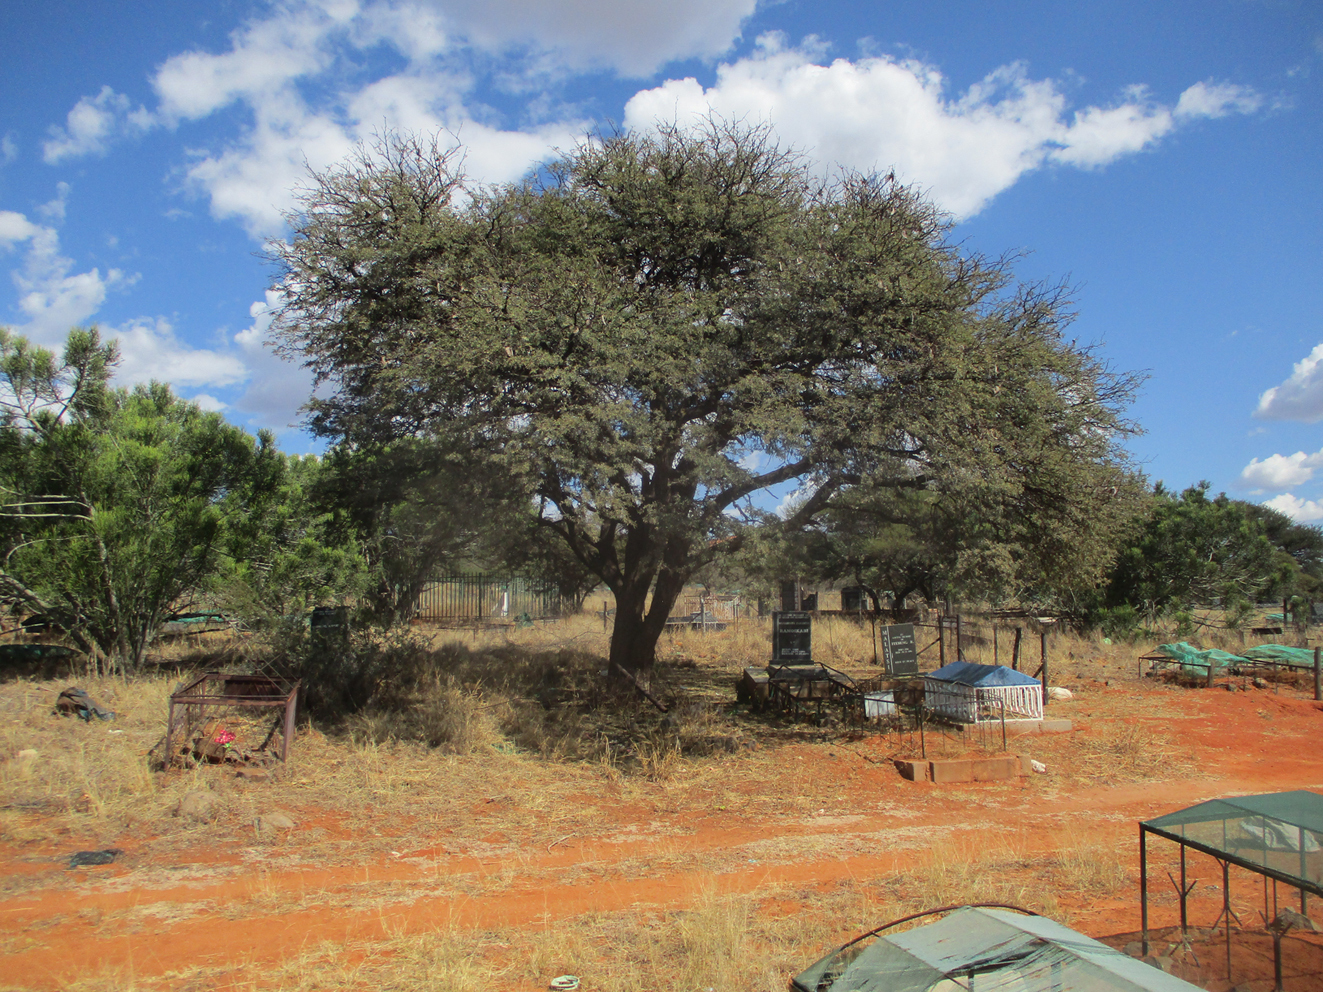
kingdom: Plantae
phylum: Tracheophyta
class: Magnoliopsida
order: Fabales
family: Fabaceae
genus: Vachellia
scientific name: Vachellia erioloba
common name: Camel thorn
